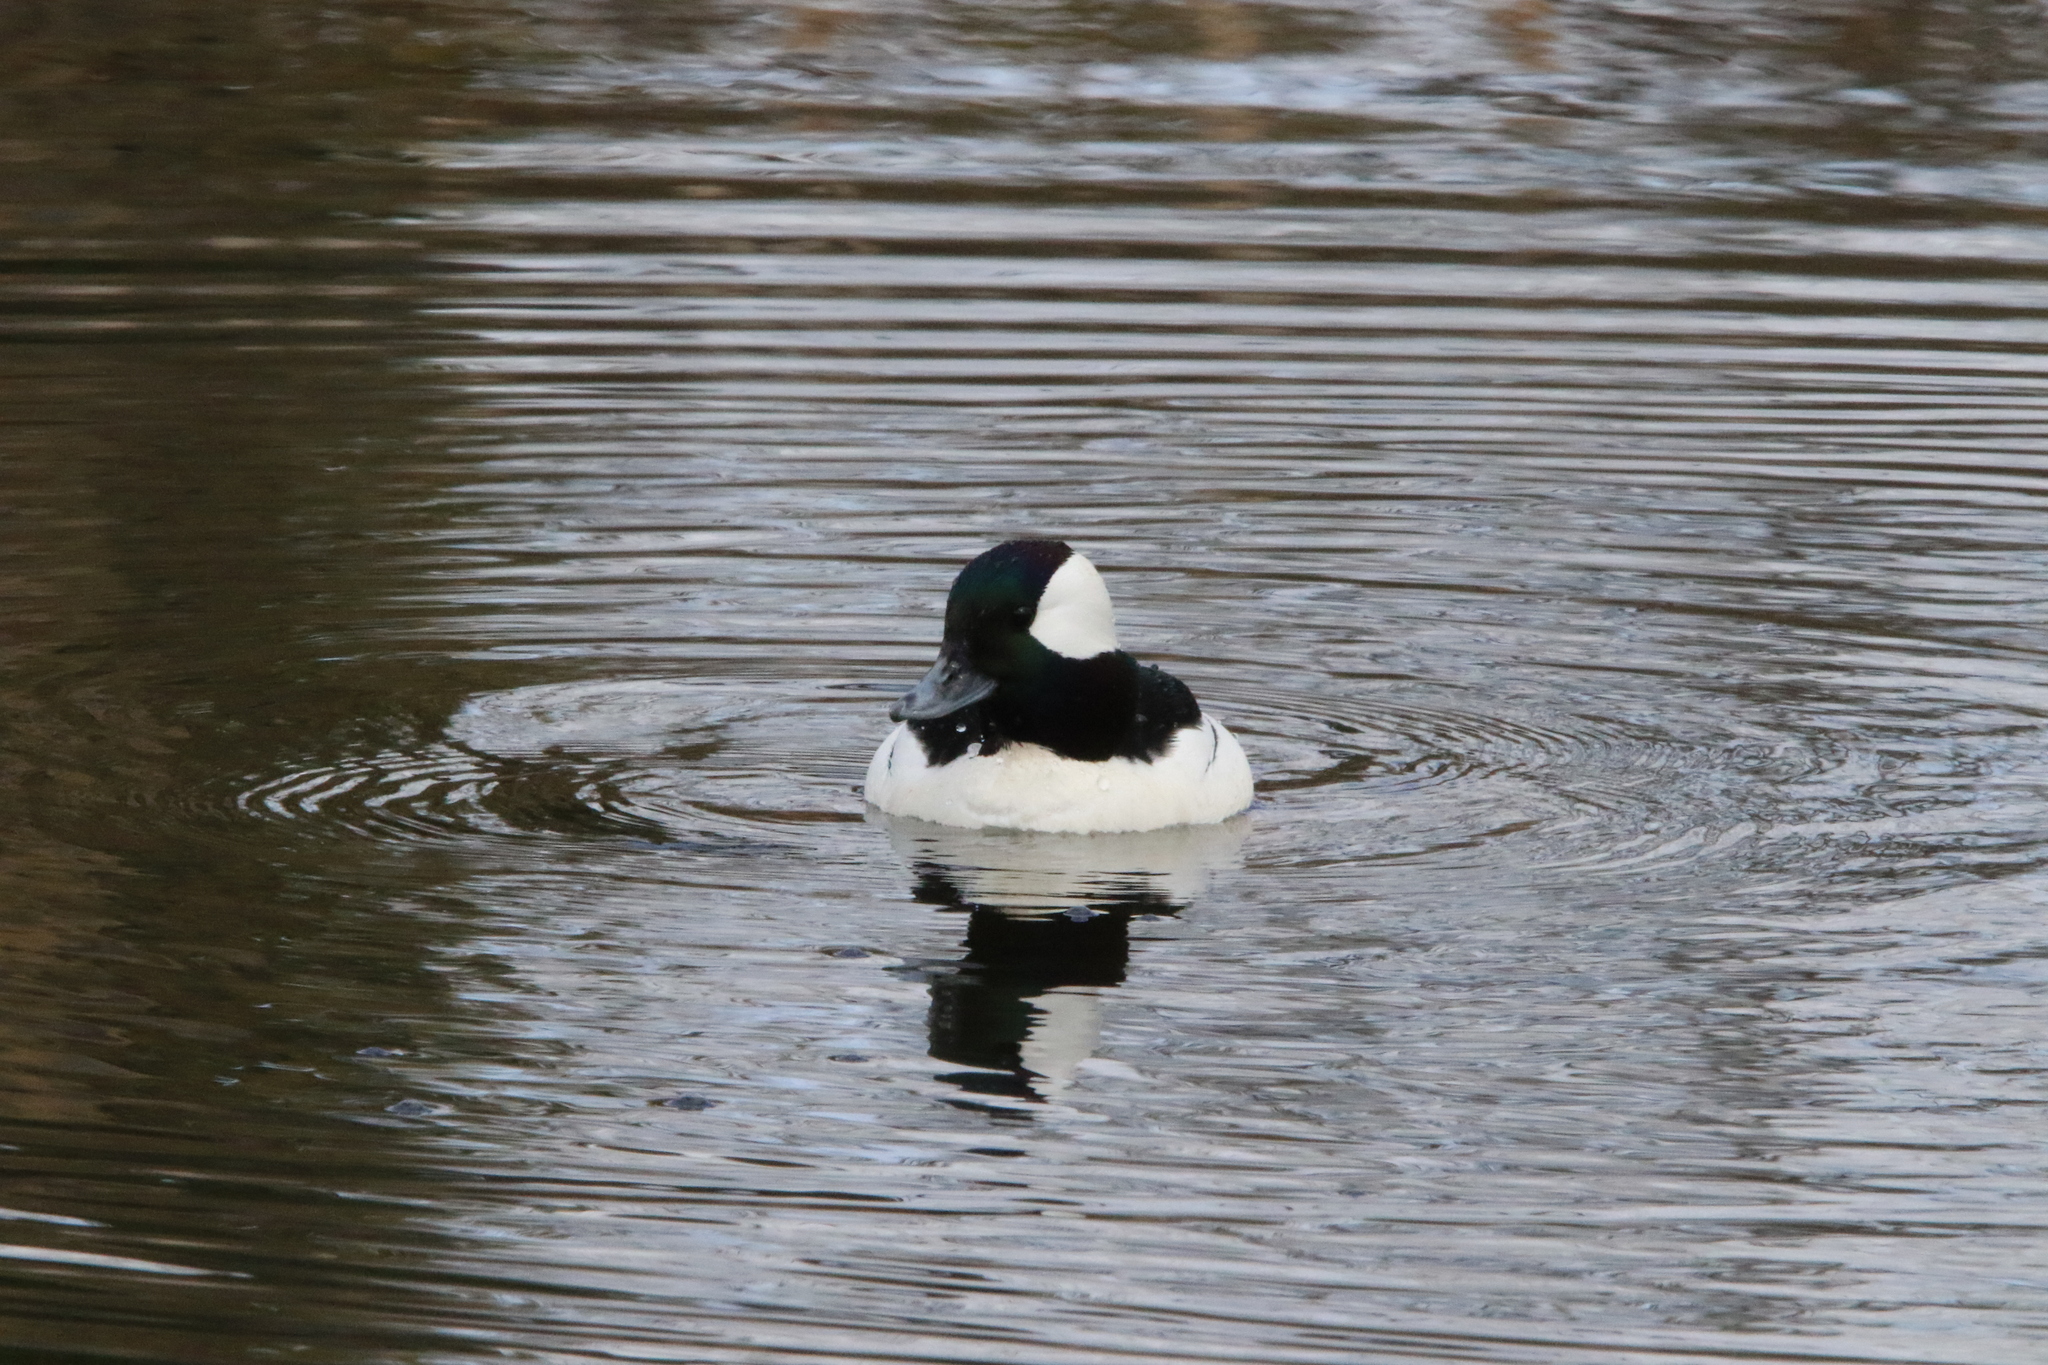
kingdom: Animalia
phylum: Chordata
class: Aves
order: Anseriformes
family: Anatidae
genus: Bucephala
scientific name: Bucephala albeola
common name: Bufflehead
